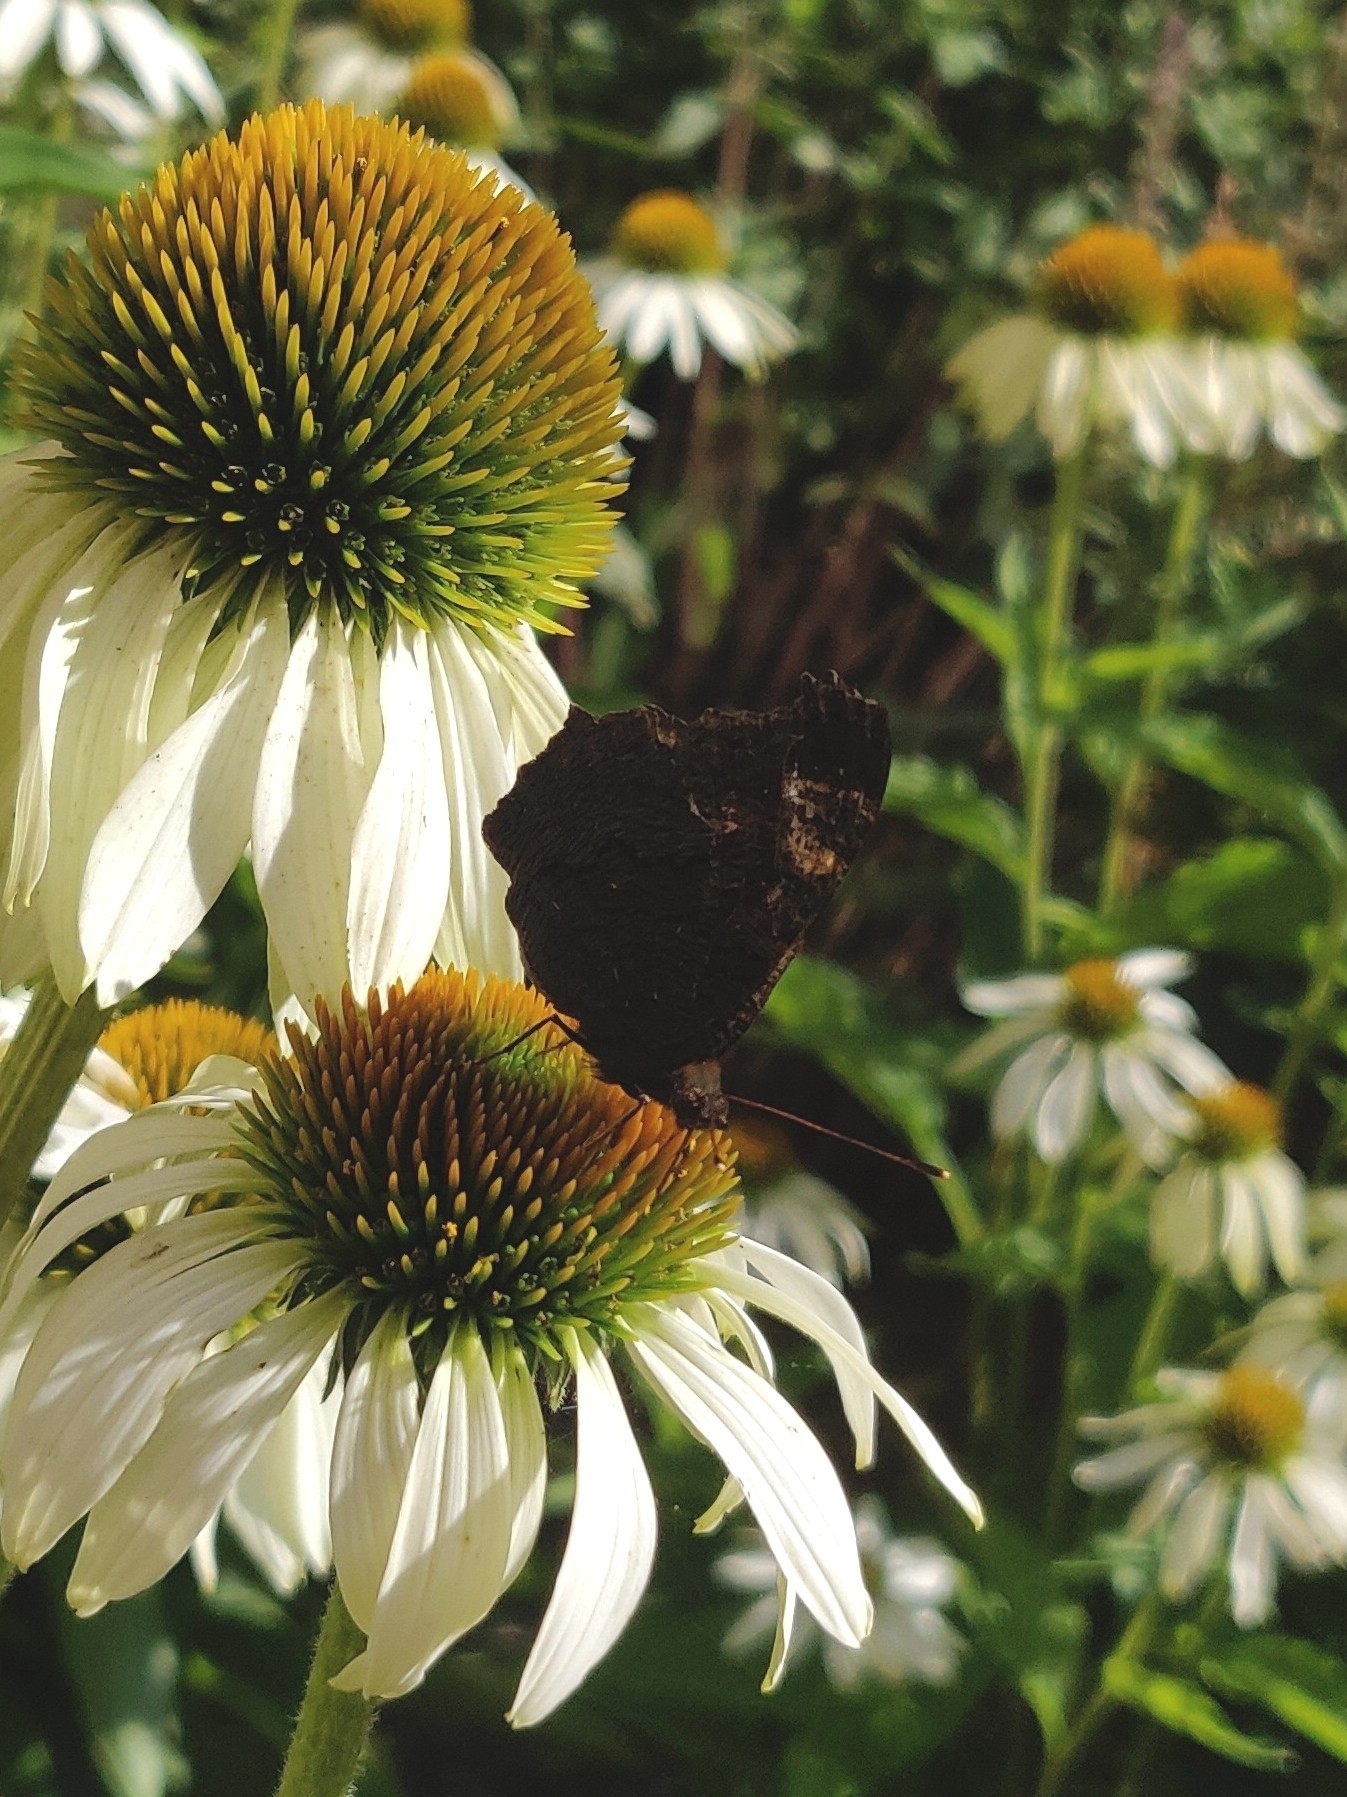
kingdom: Animalia
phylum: Arthropoda
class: Insecta
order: Lepidoptera
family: Nymphalidae
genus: Aglais
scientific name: Aglais io
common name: Peacock
